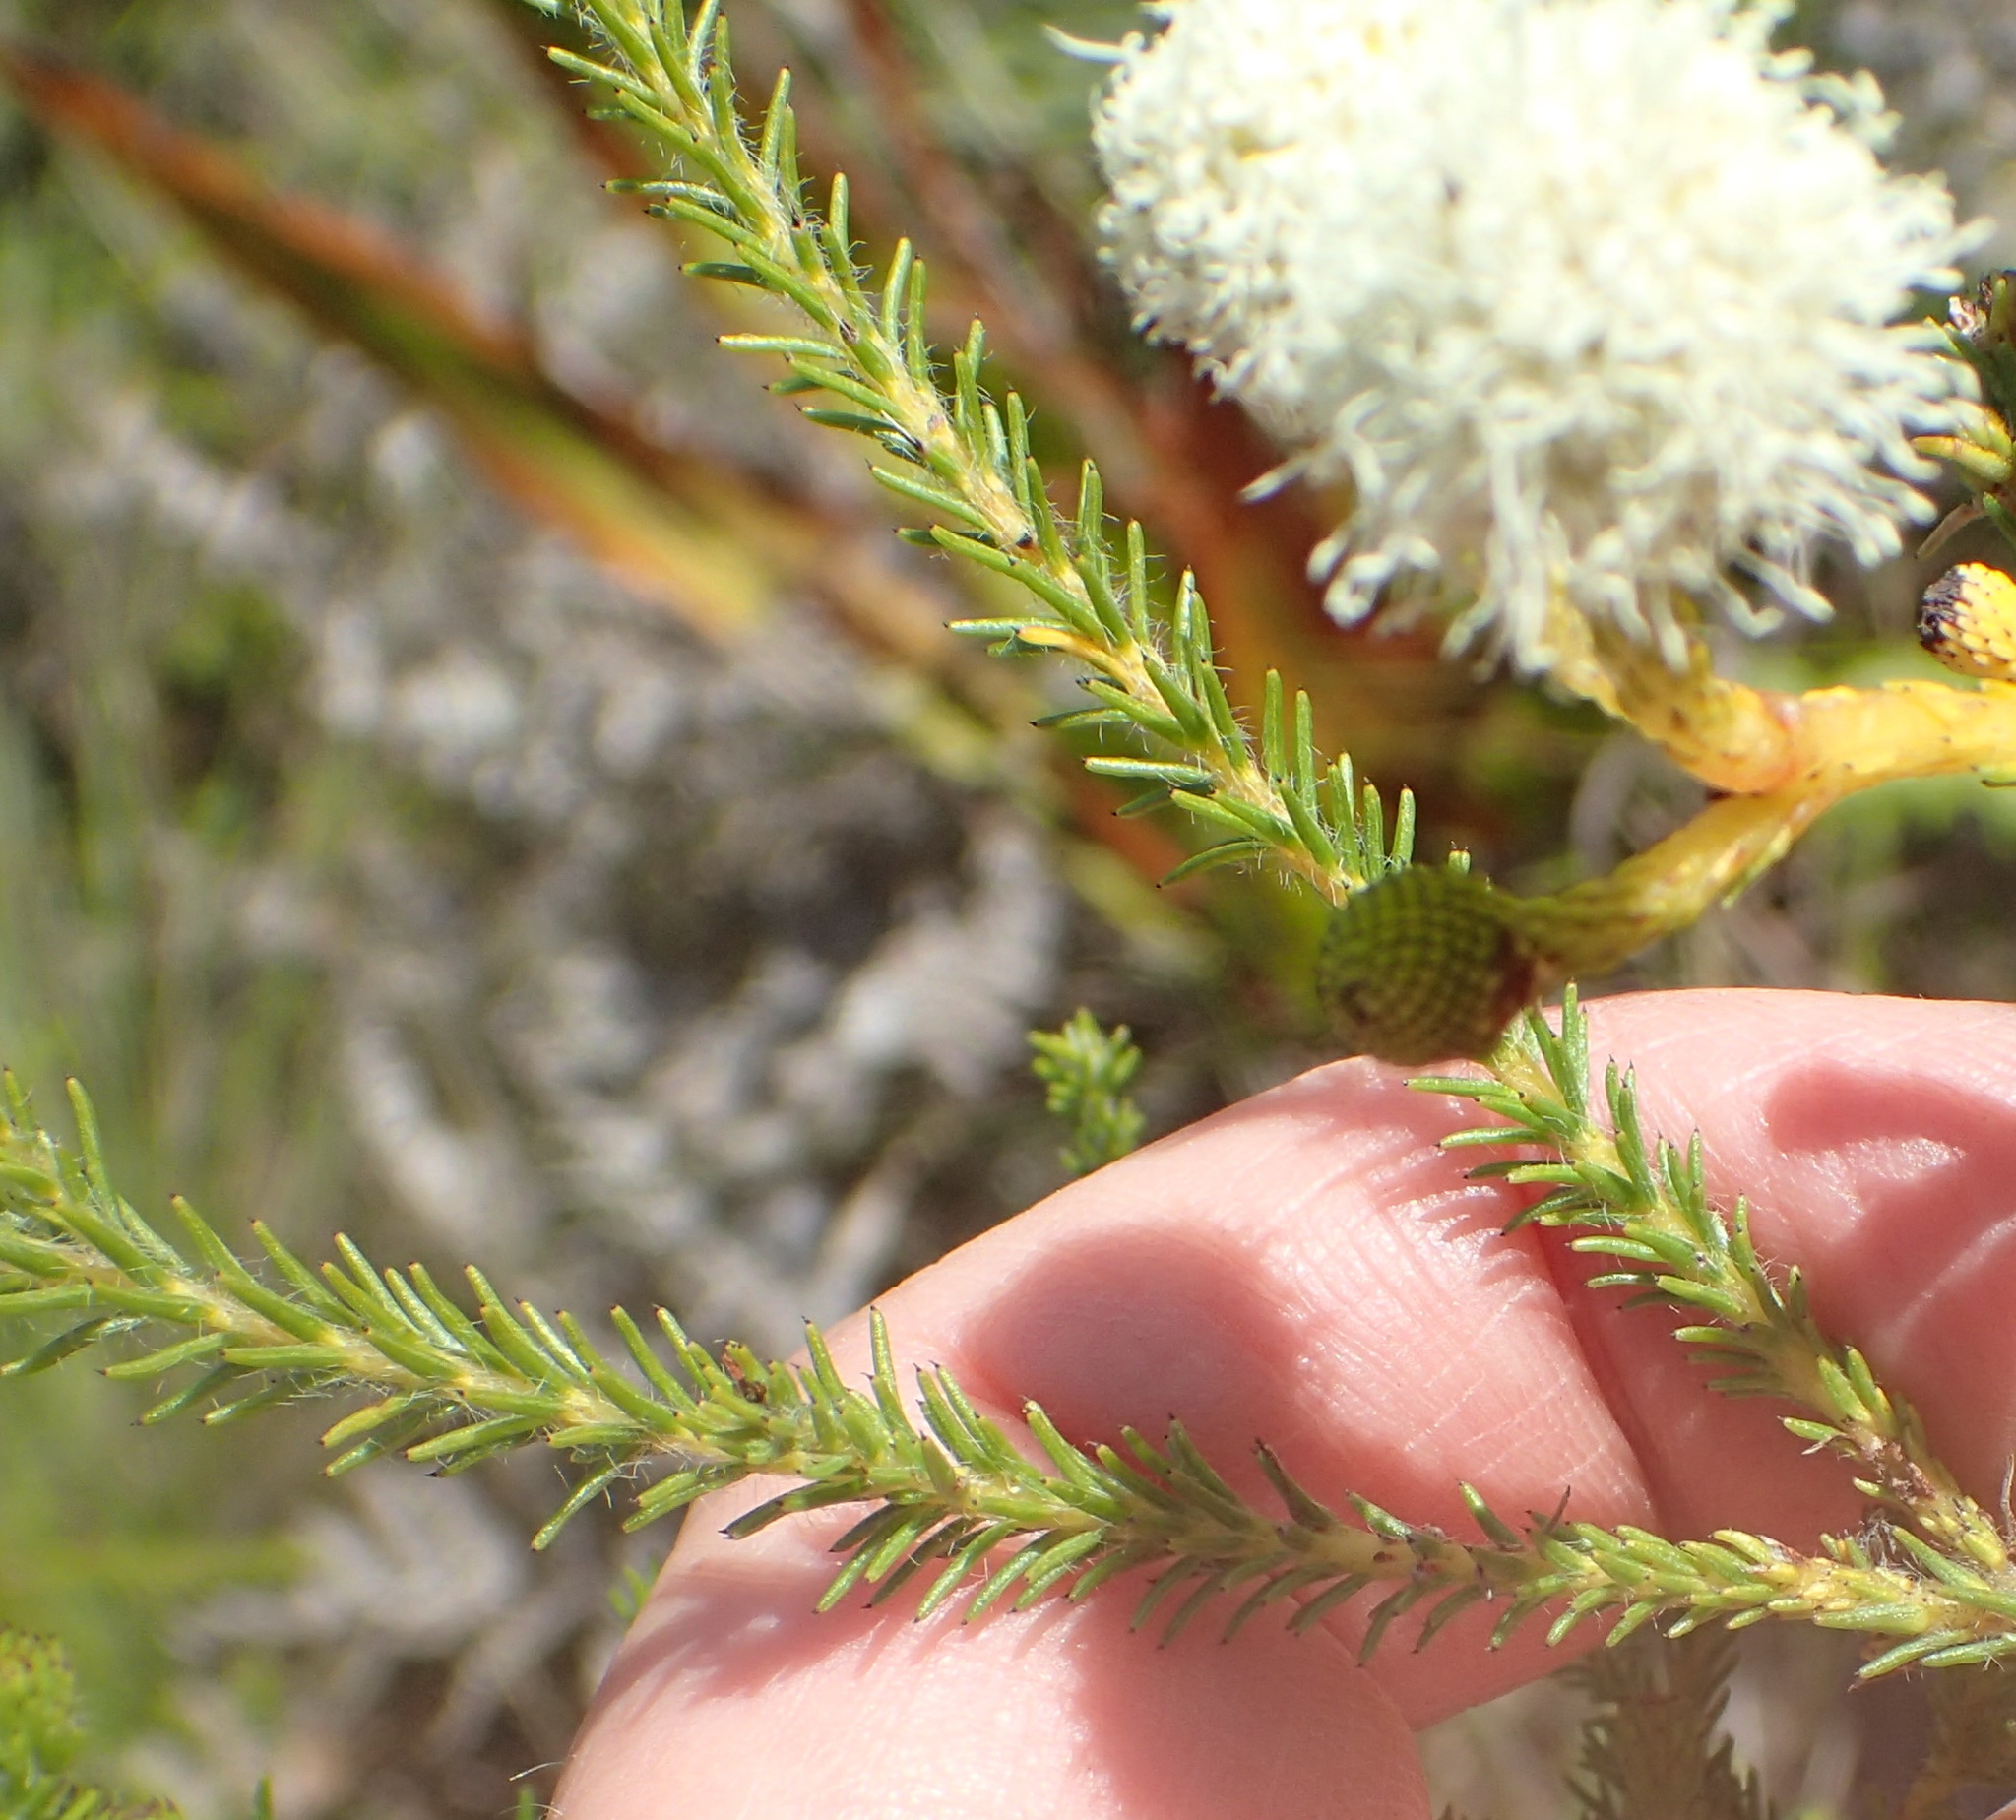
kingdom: Plantae
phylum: Tracheophyta
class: Magnoliopsida
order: Bruniales
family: Bruniaceae
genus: Berzelia
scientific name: Berzelia intermedia
